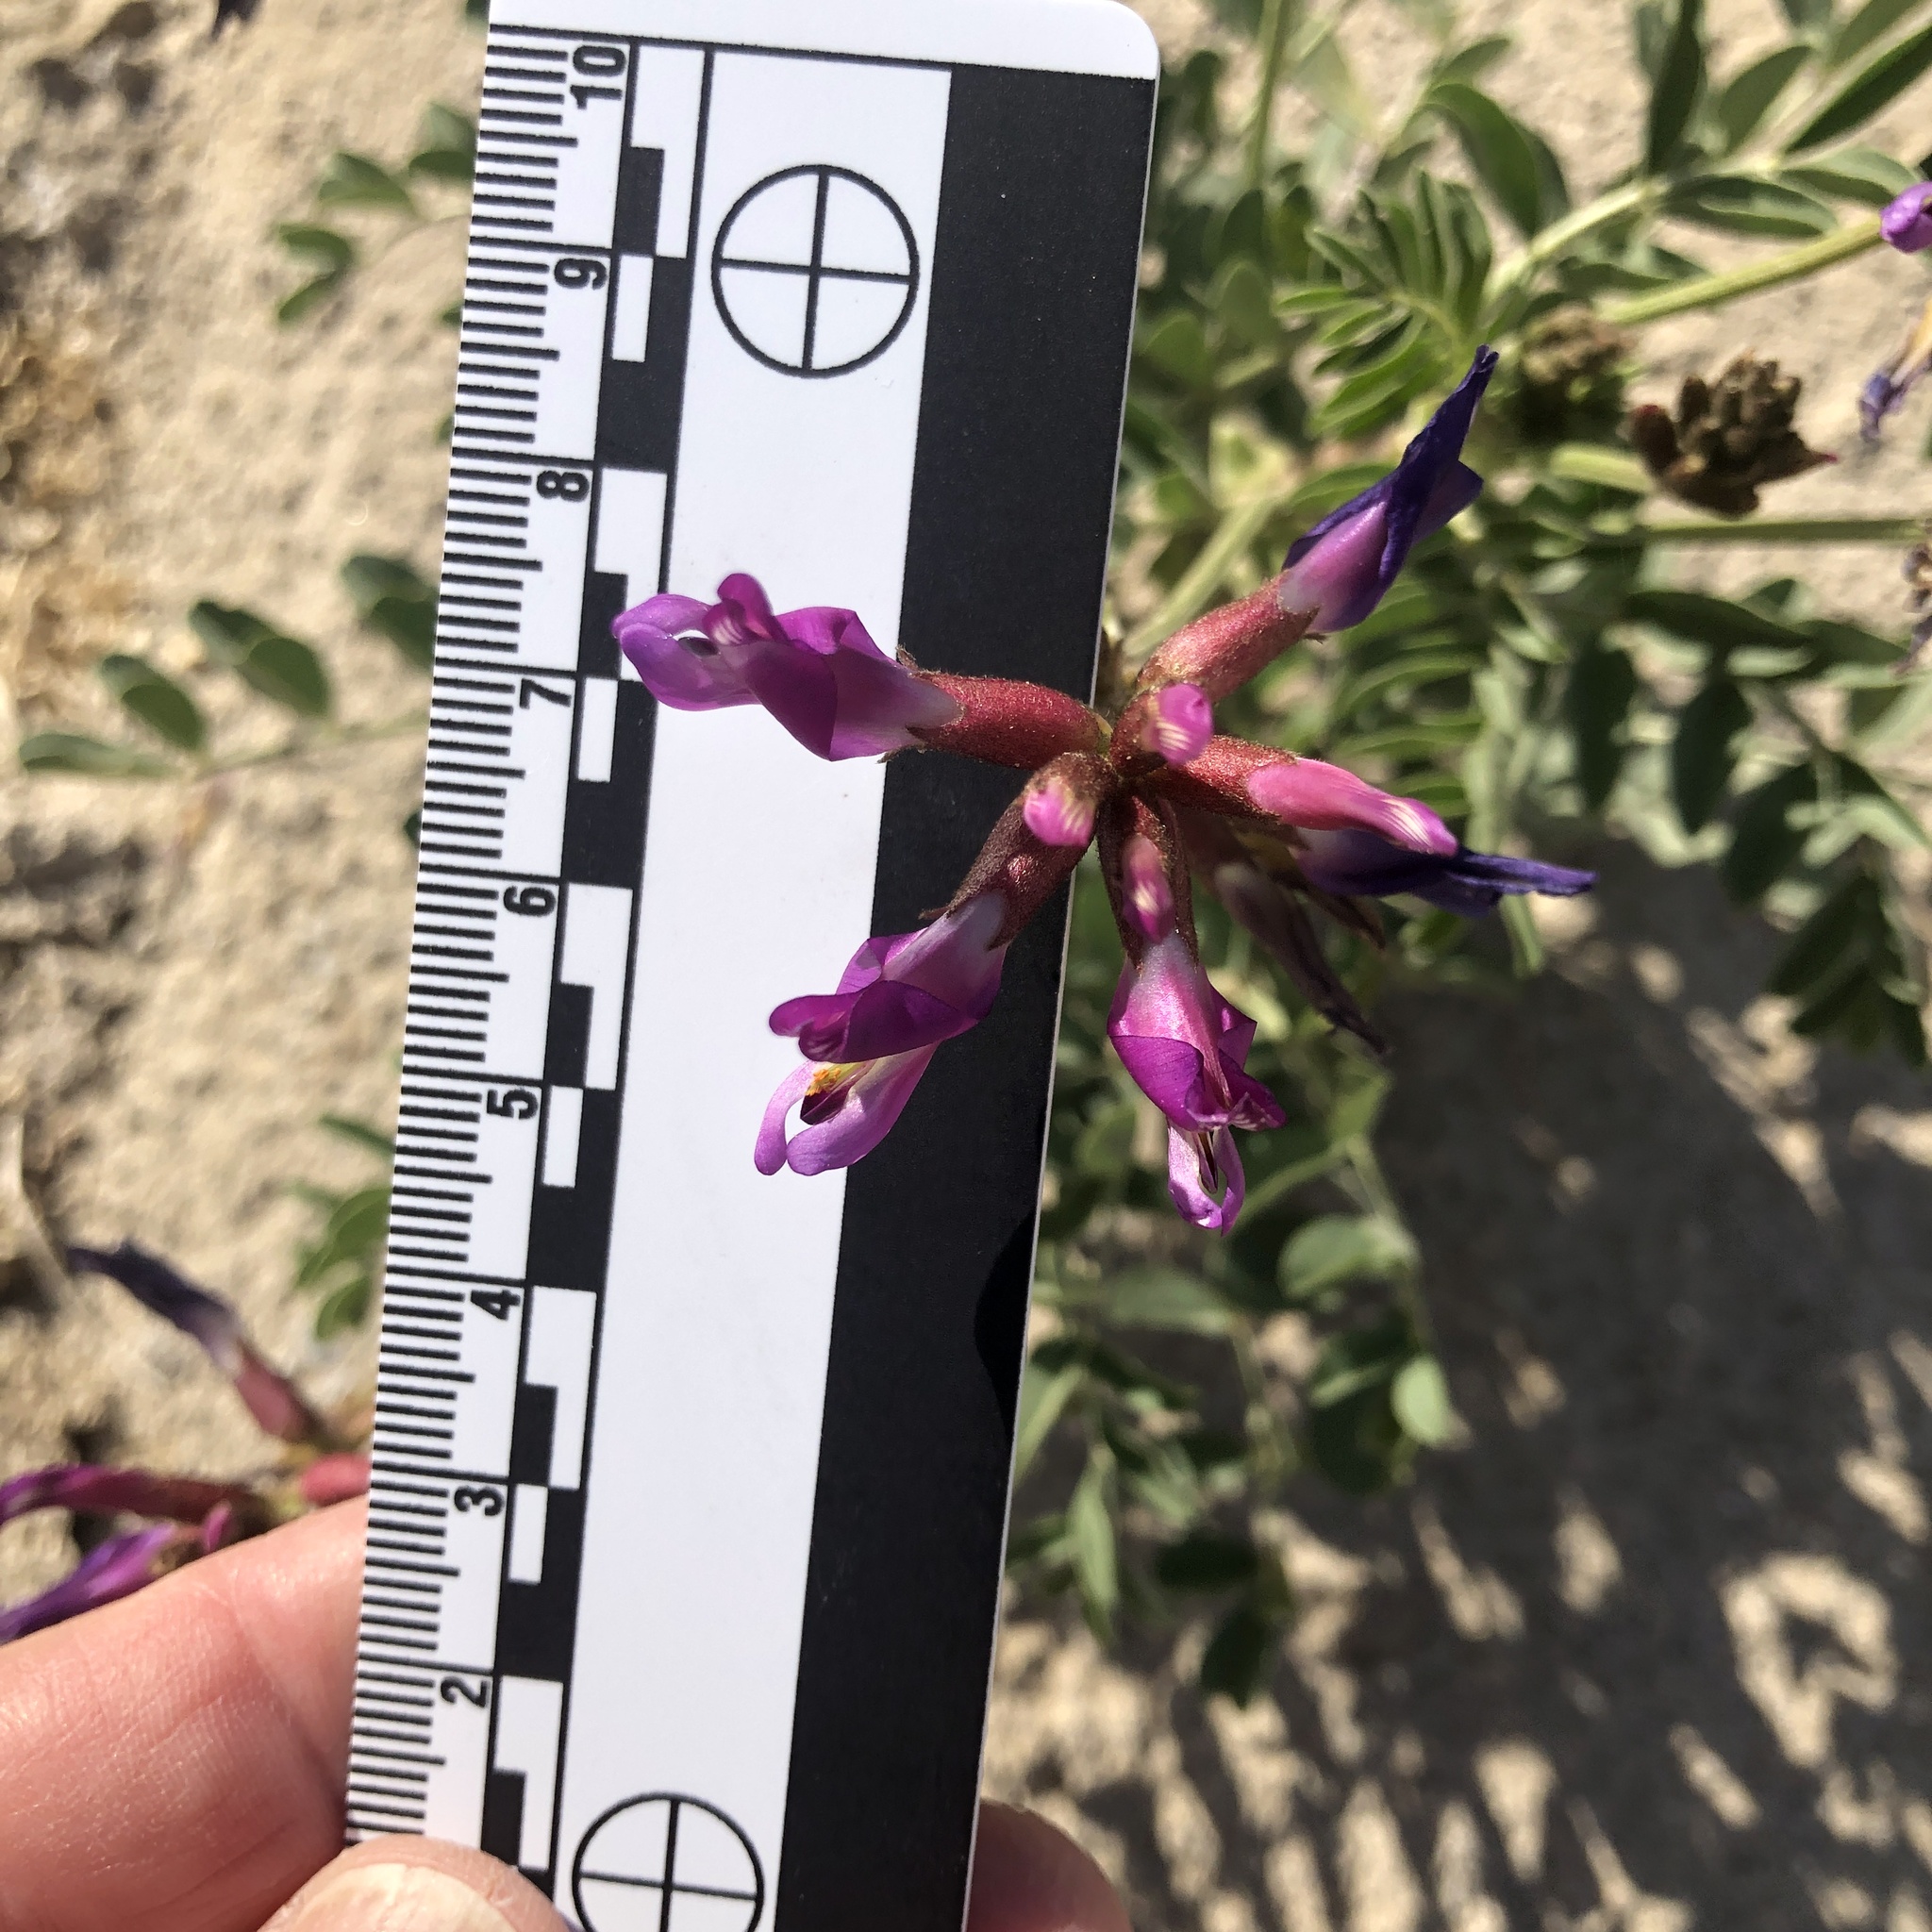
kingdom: Plantae
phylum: Tracheophyta
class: Magnoliopsida
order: Fabales
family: Fabaceae
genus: Astragalus
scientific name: Astragalus crotalariae
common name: Salton milkvetch
